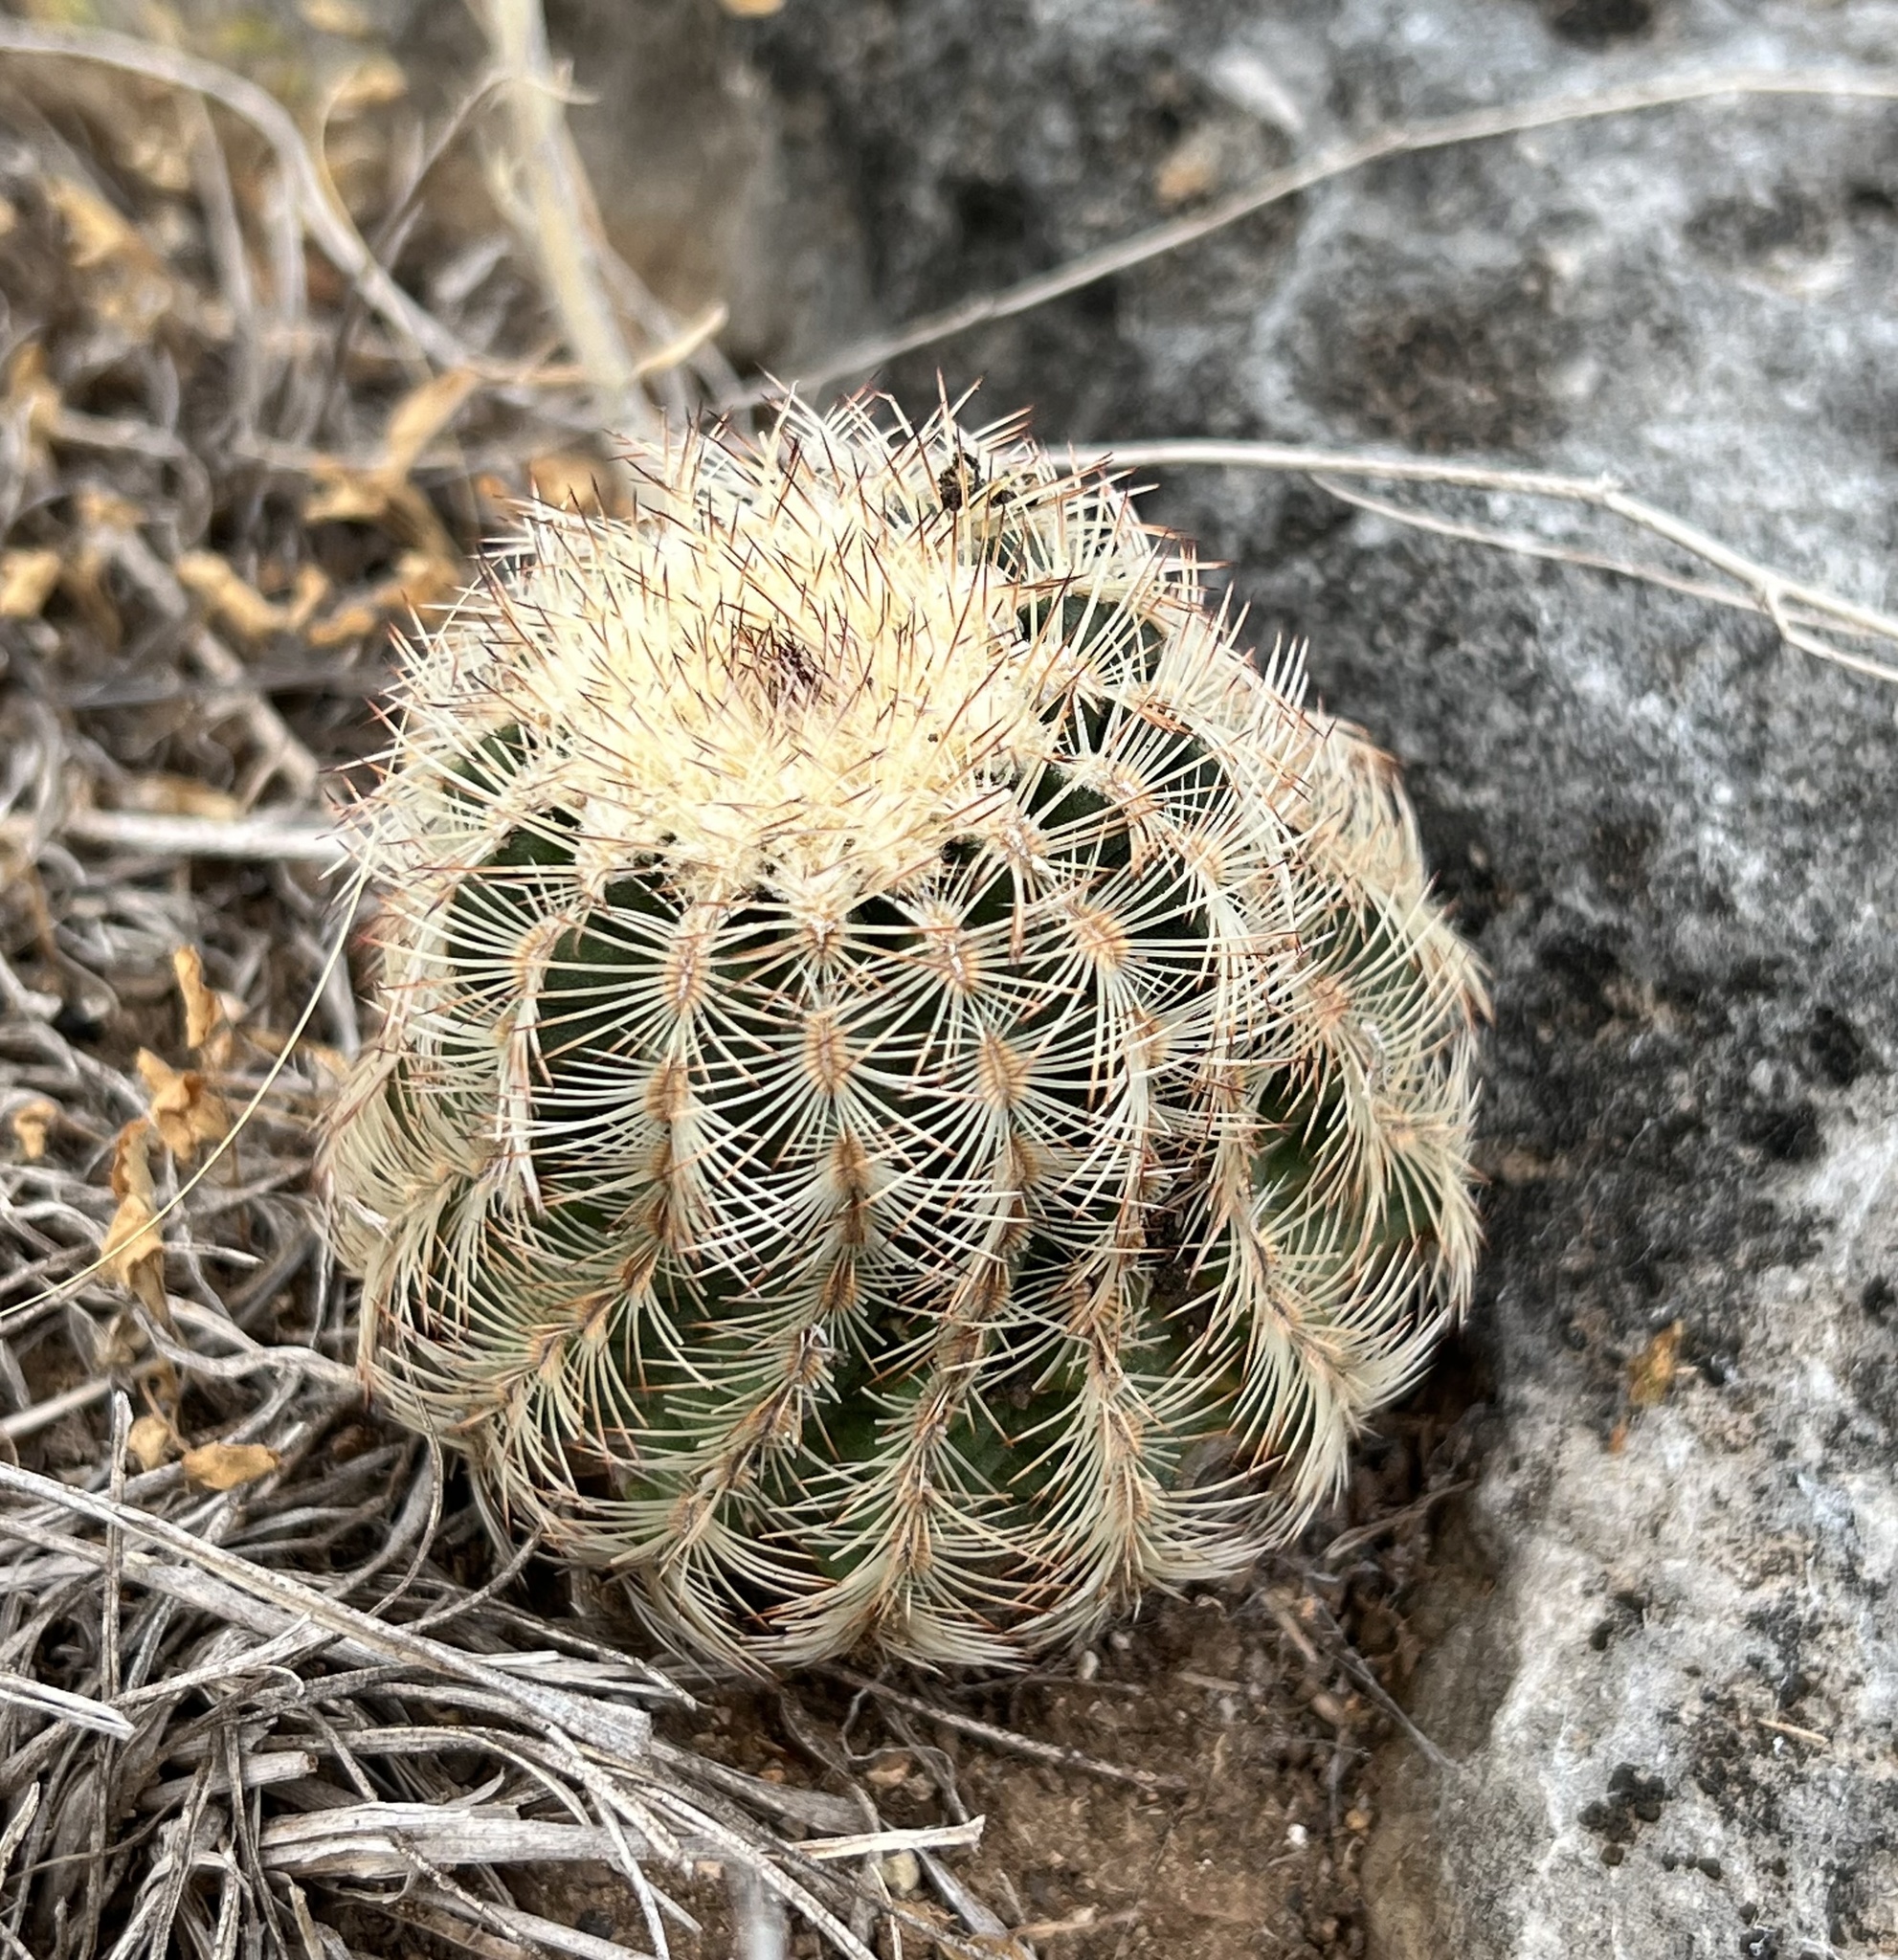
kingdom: Plantae
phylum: Tracheophyta
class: Magnoliopsida
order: Caryophyllales
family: Cactaceae
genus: Echinocereus
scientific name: Echinocereus reichenbachii
